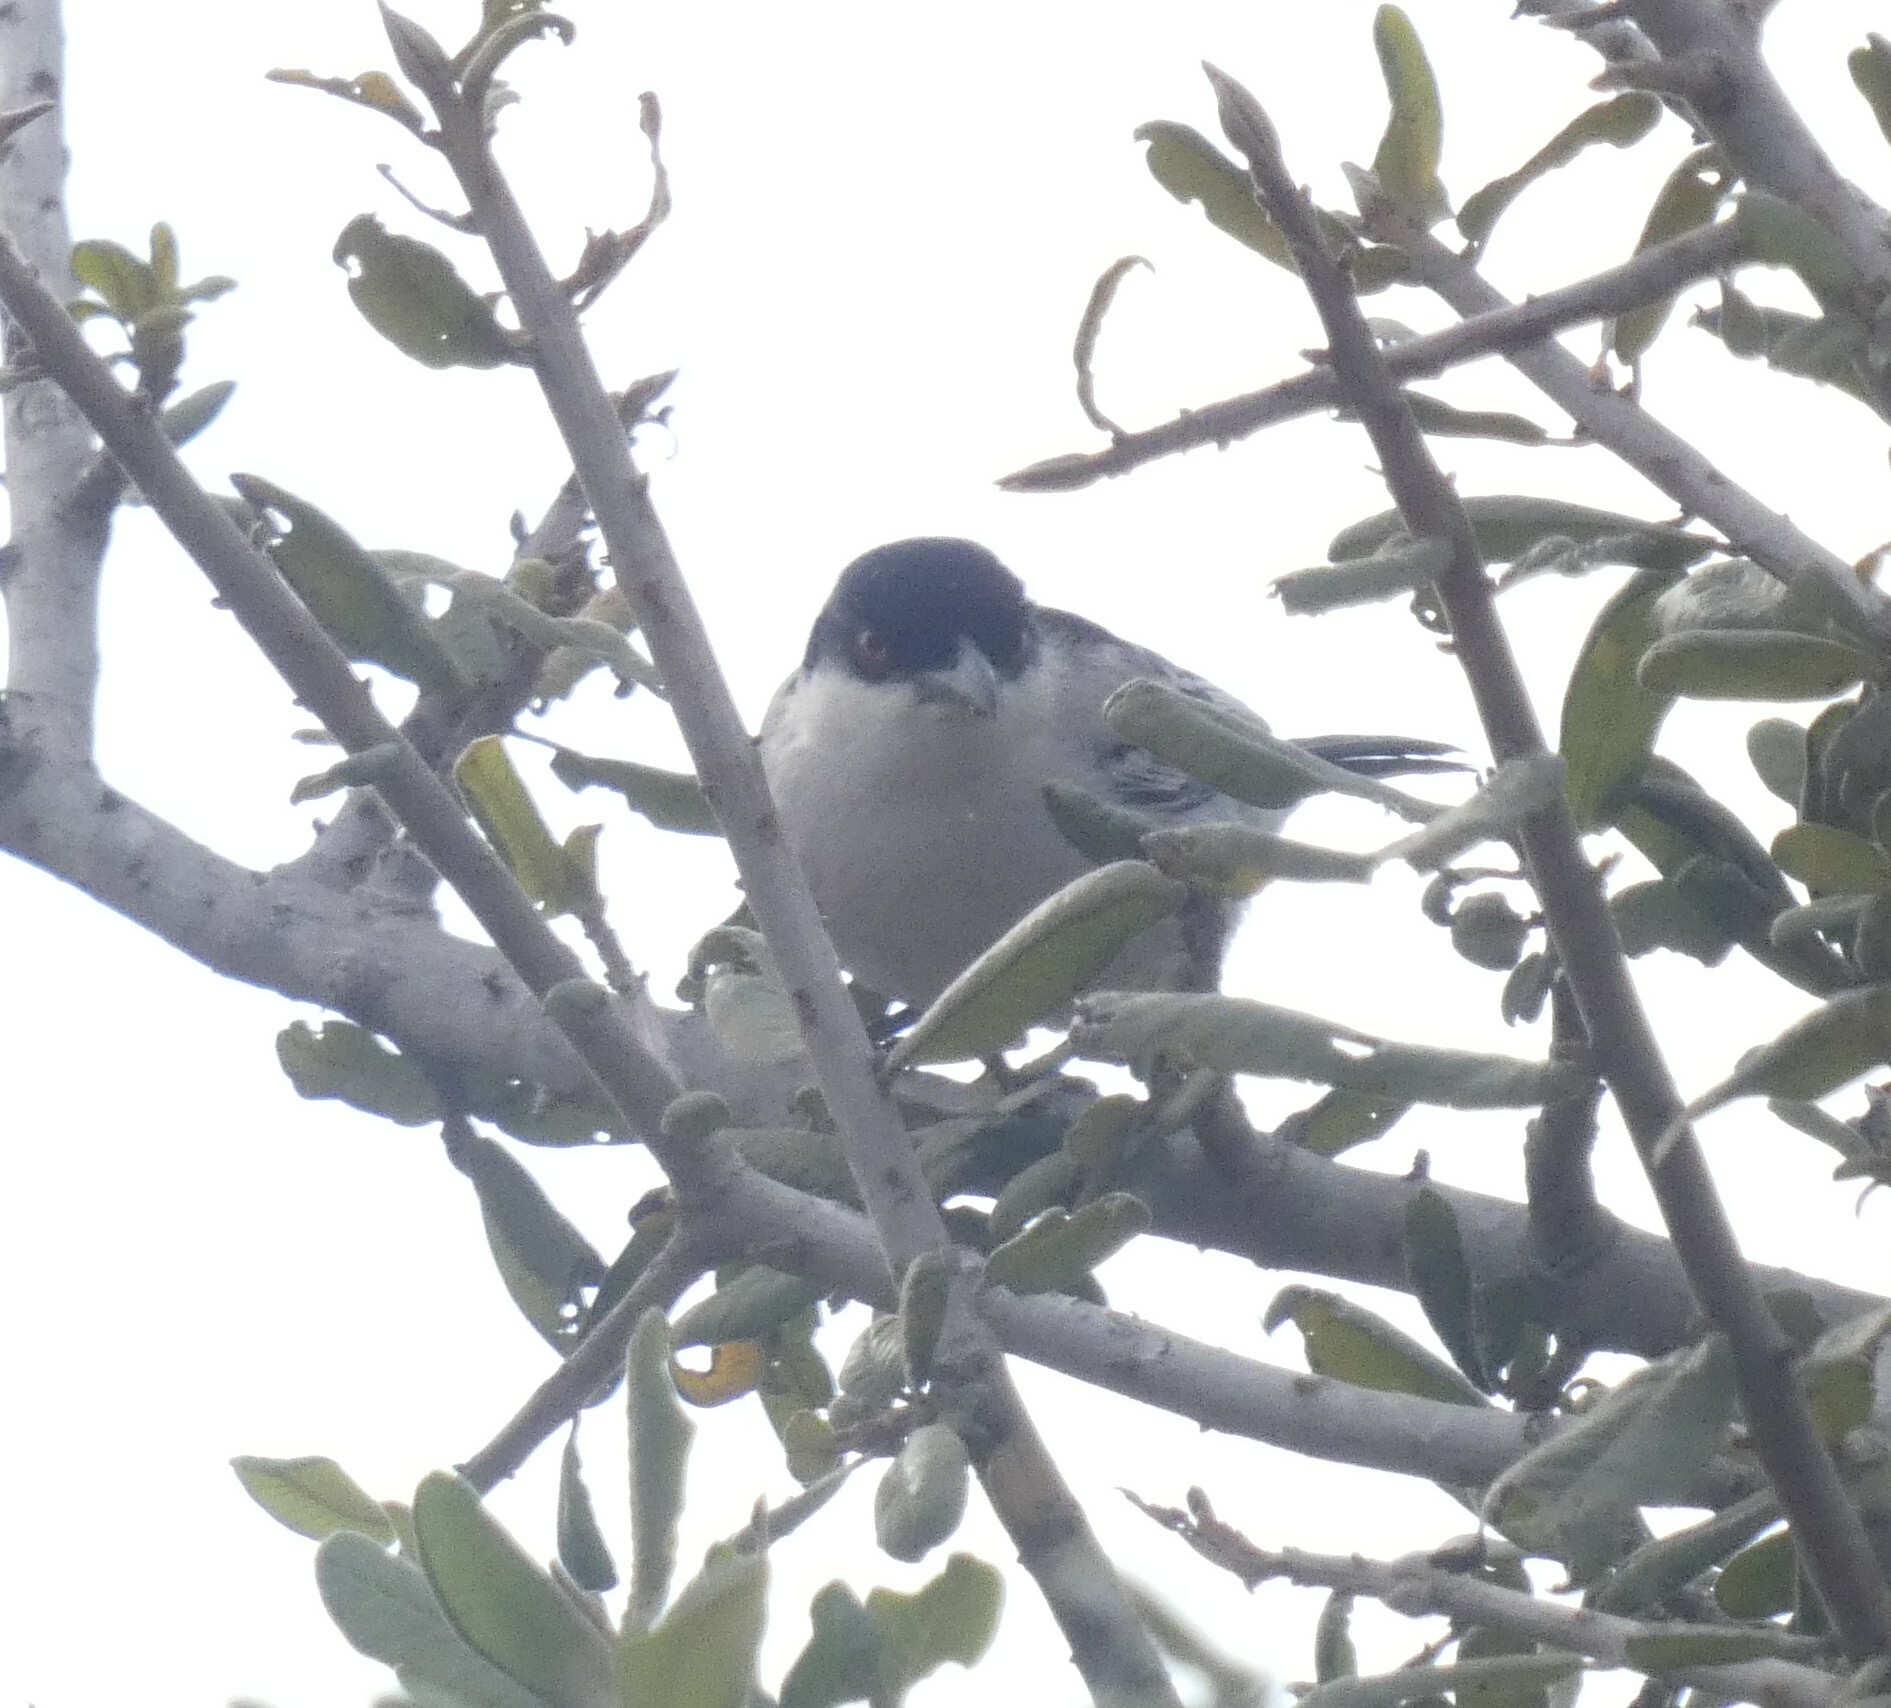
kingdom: Animalia
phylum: Chordata
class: Aves
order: Passeriformes
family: Malaconotidae
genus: Dryoscopus
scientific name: Dryoscopus cubla
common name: Black-backed puffback
